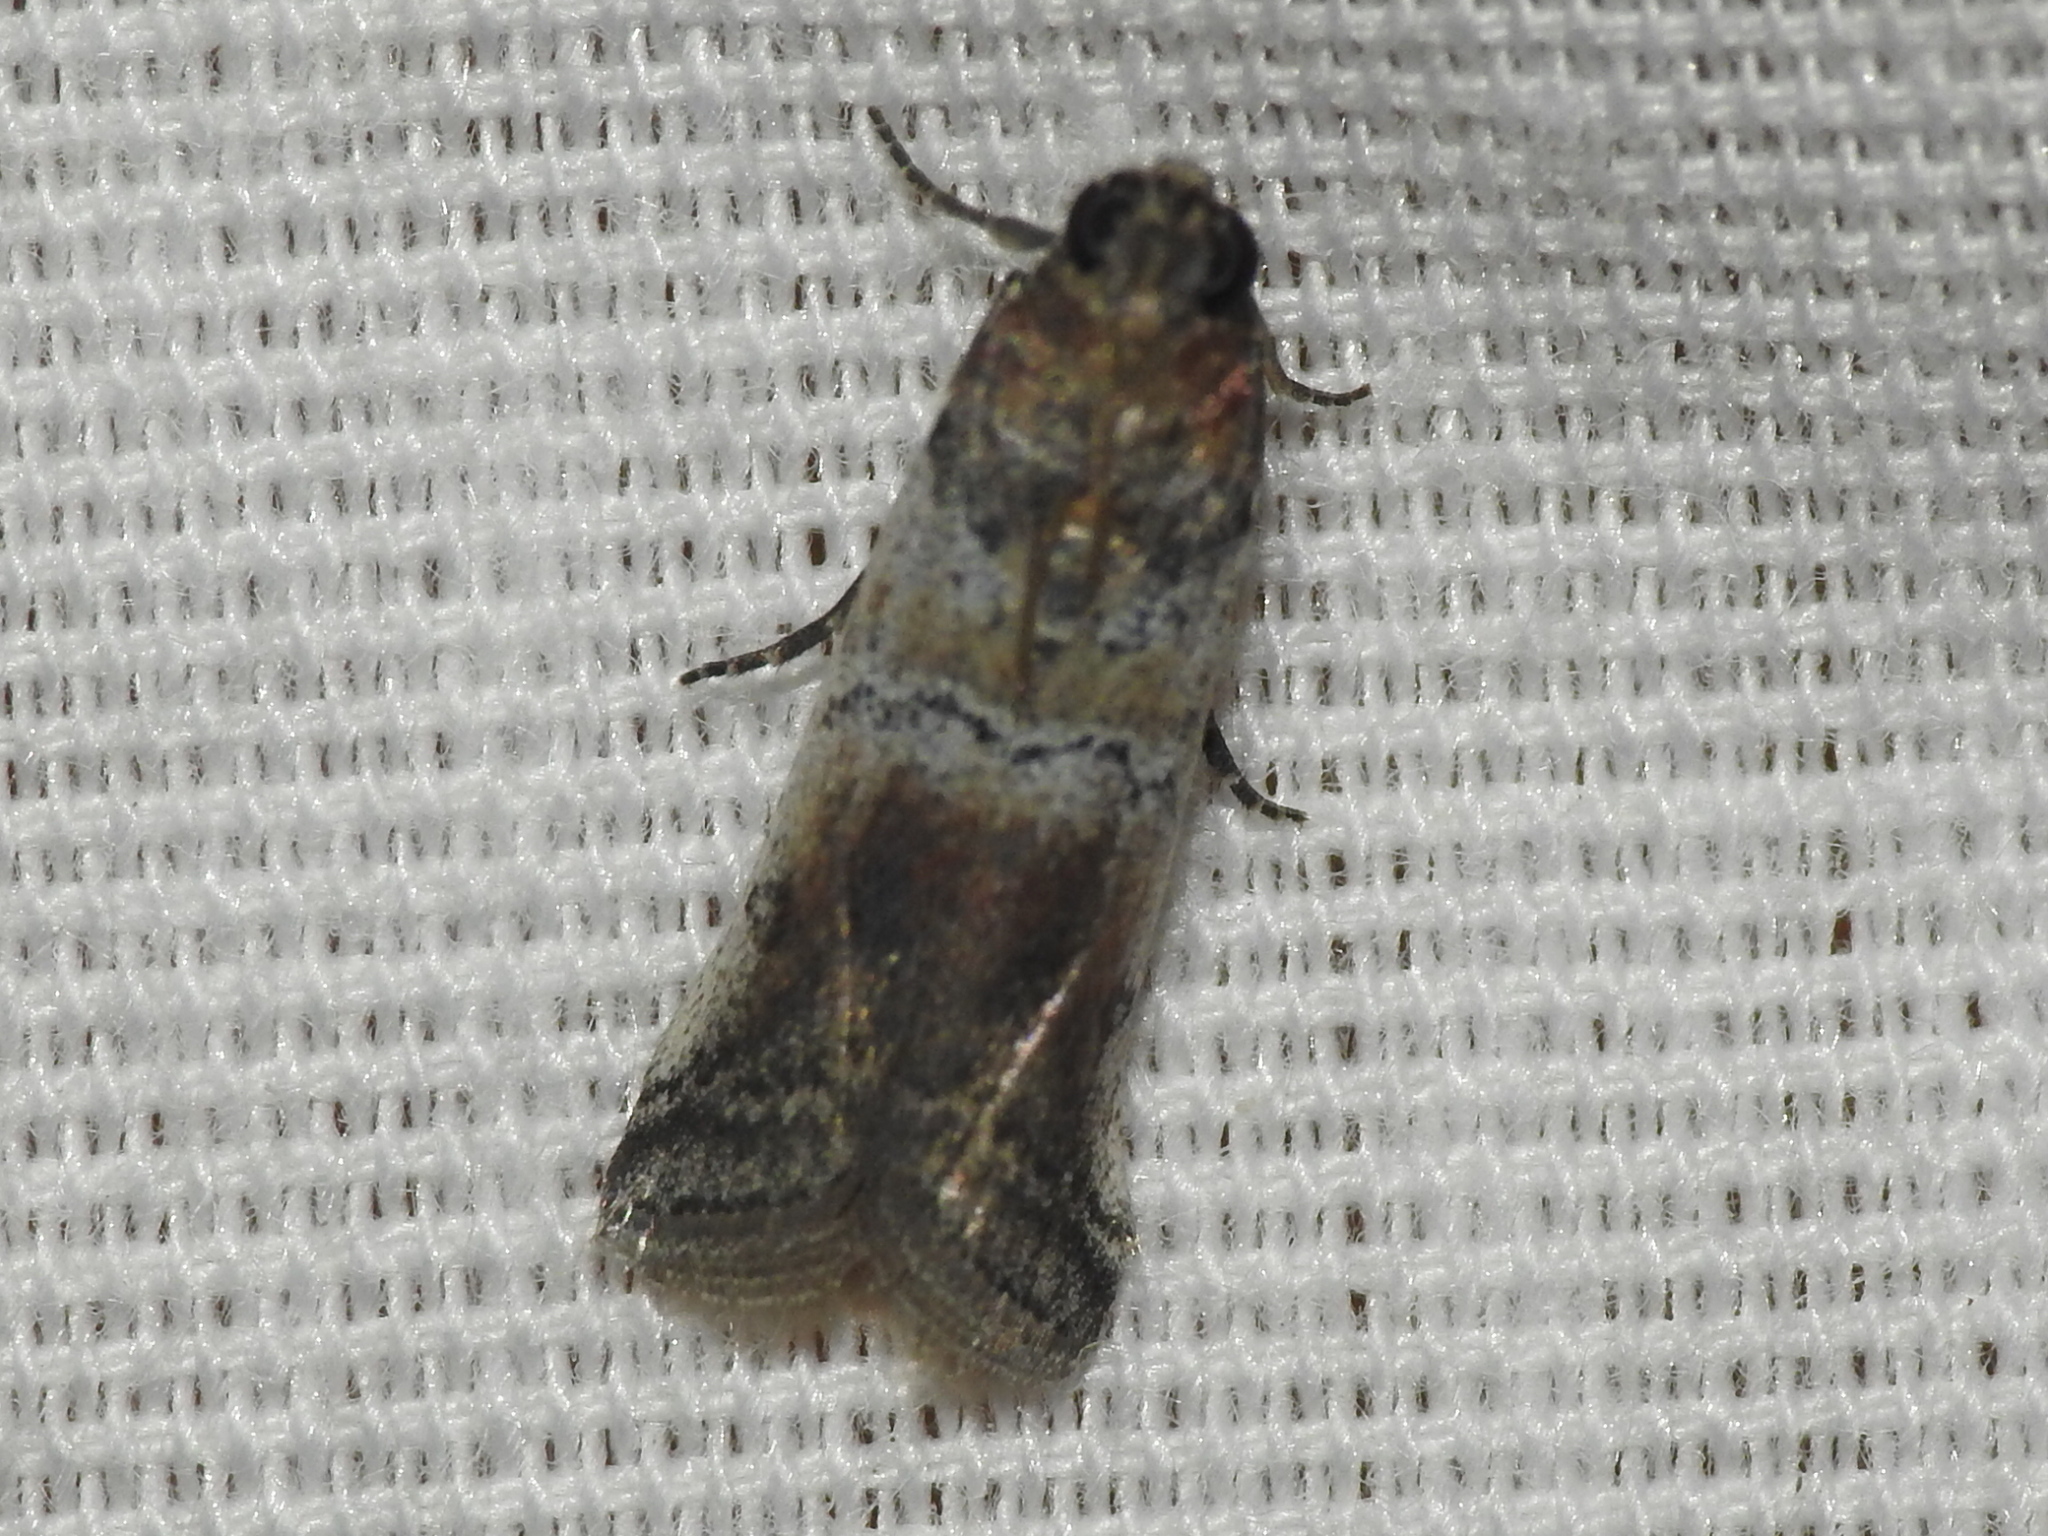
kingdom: Animalia
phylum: Arthropoda
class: Insecta
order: Lepidoptera
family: Pyralidae
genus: Chararica
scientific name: Chararica hystriculella
